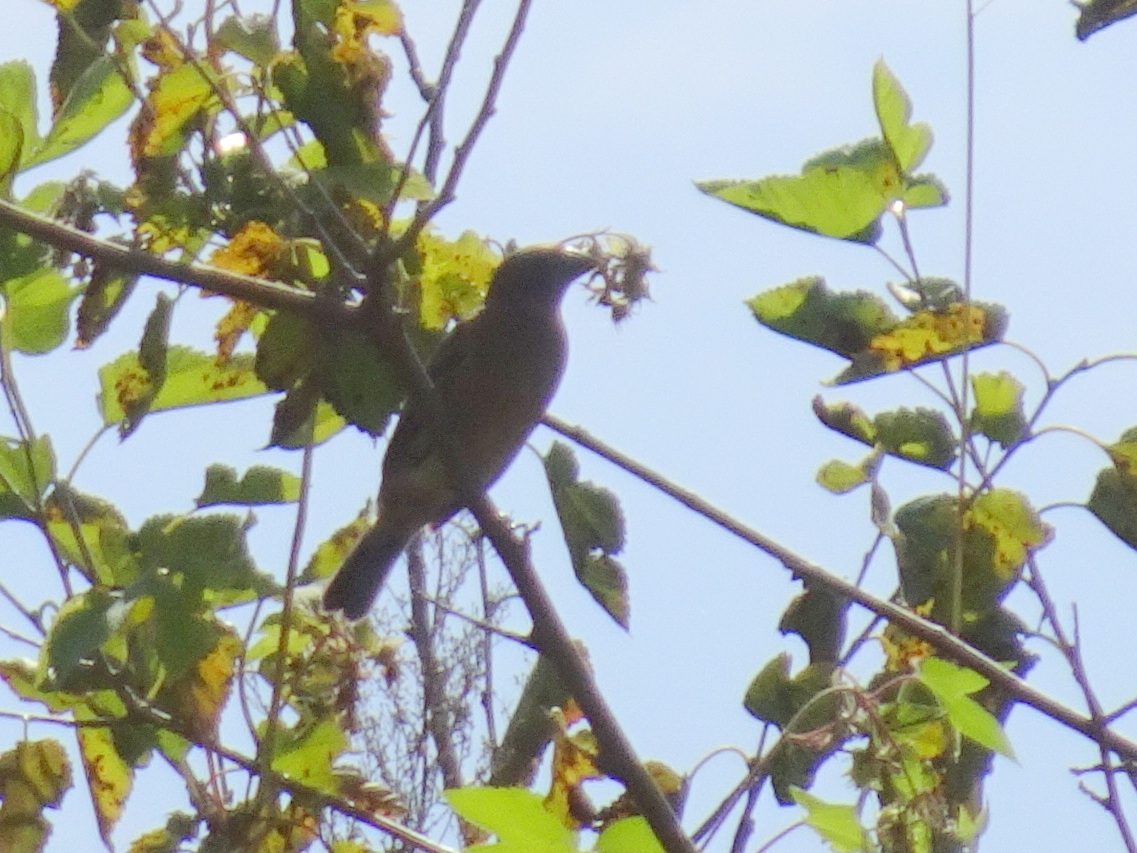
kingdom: Animalia
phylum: Chordata
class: Aves
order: Passeriformes
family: Cardinalidae
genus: Passerina
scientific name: Passerina caerulea
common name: Blue grosbeak
